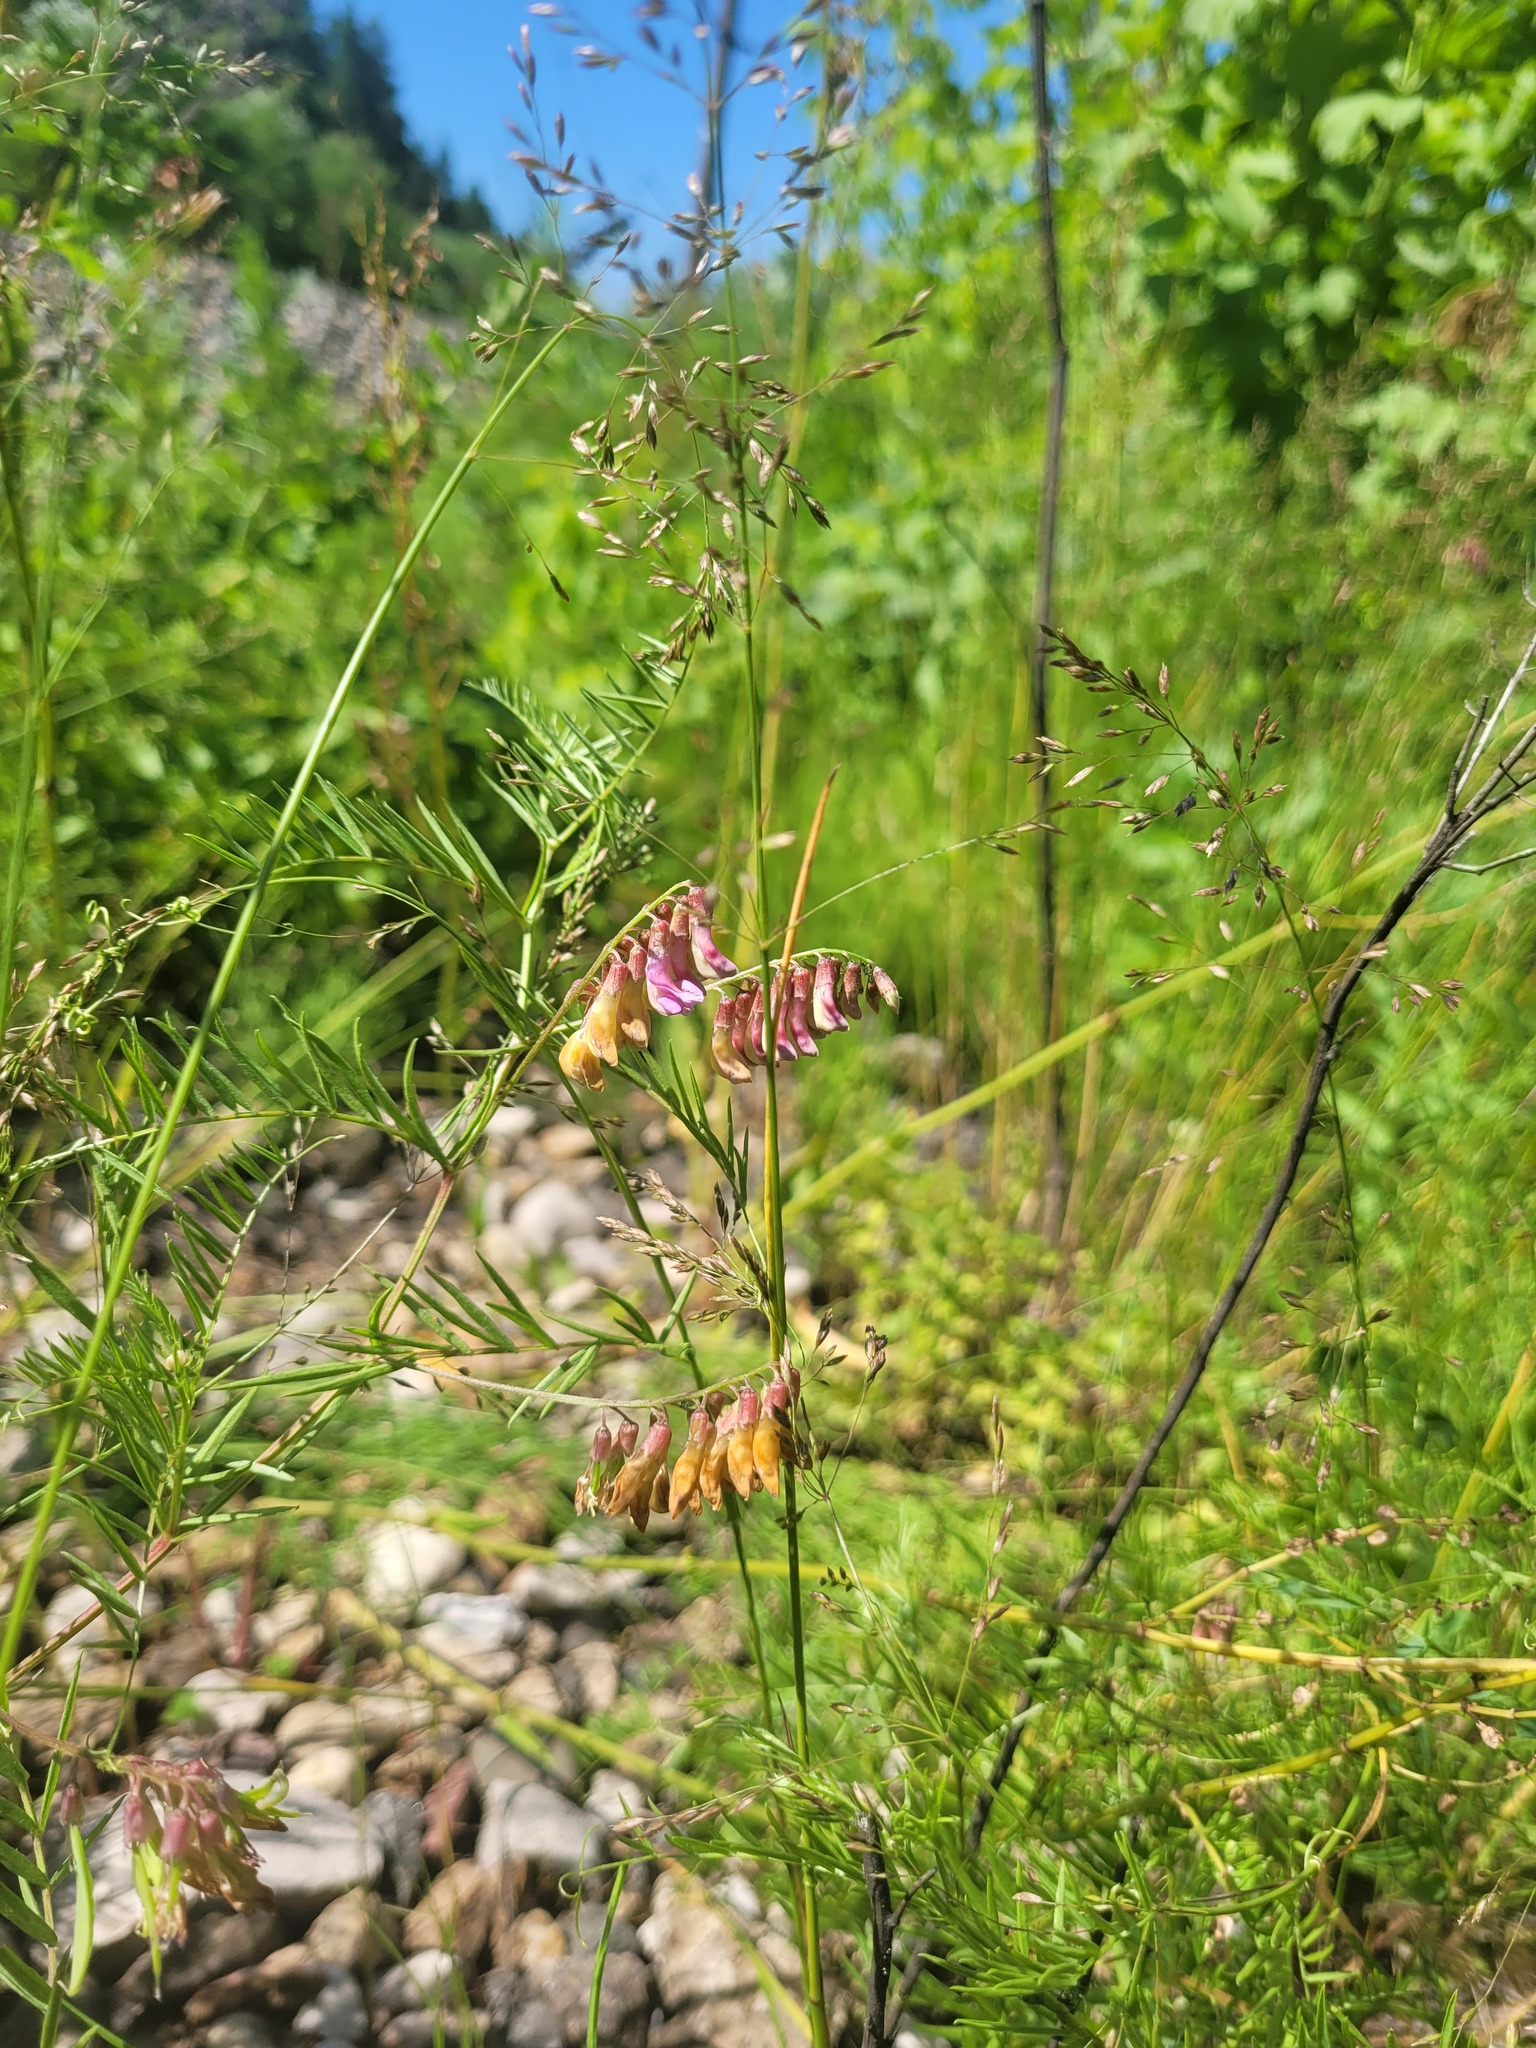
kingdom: Plantae
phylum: Tracheophyta
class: Magnoliopsida
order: Fabales
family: Fabaceae
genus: Vicia
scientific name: Vicia megalotropis
